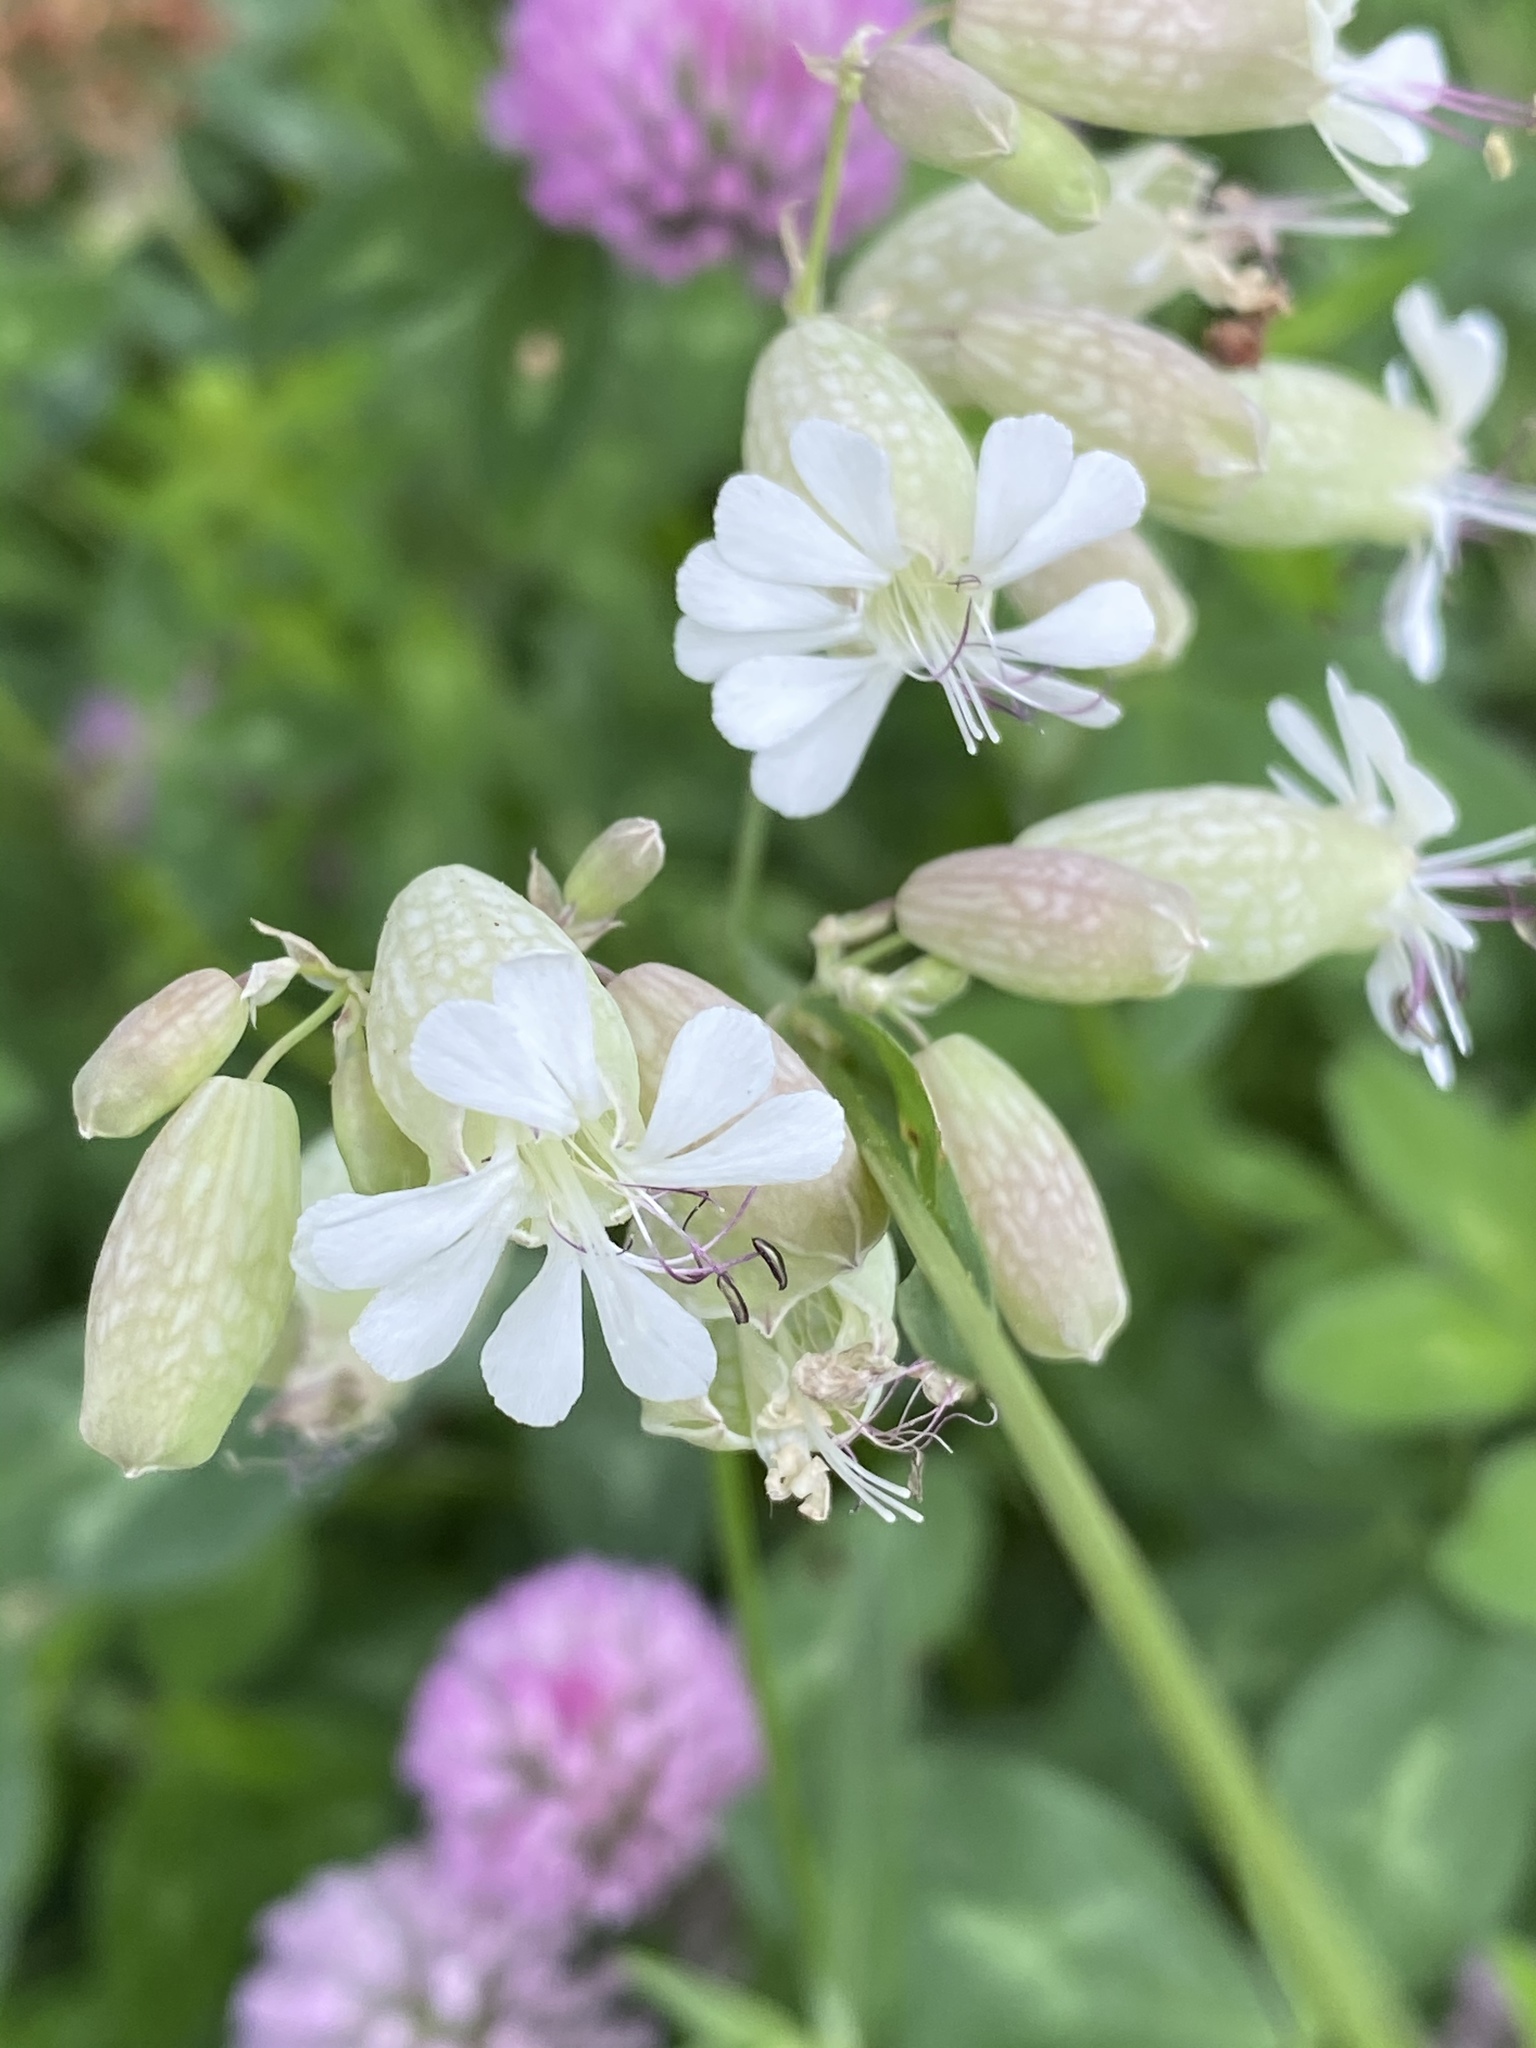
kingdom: Plantae
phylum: Tracheophyta
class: Magnoliopsida
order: Caryophyllales
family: Caryophyllaceae
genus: Silene
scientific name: Silene vulgaris
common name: Bladder campion
